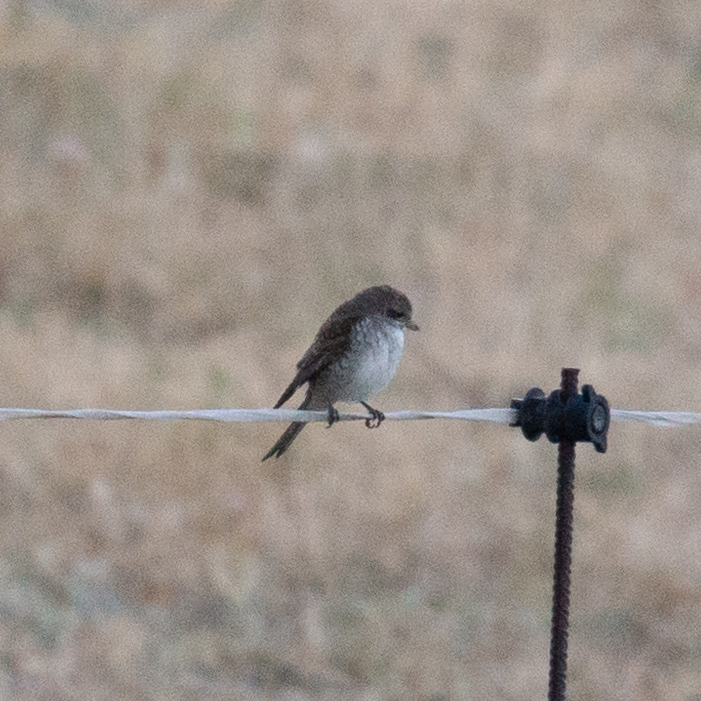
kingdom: Animalia
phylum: Chordata
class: Aves
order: Passeriformes
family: Laniidae
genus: Lanius
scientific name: Lanius collurio
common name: Red-backed shrike
